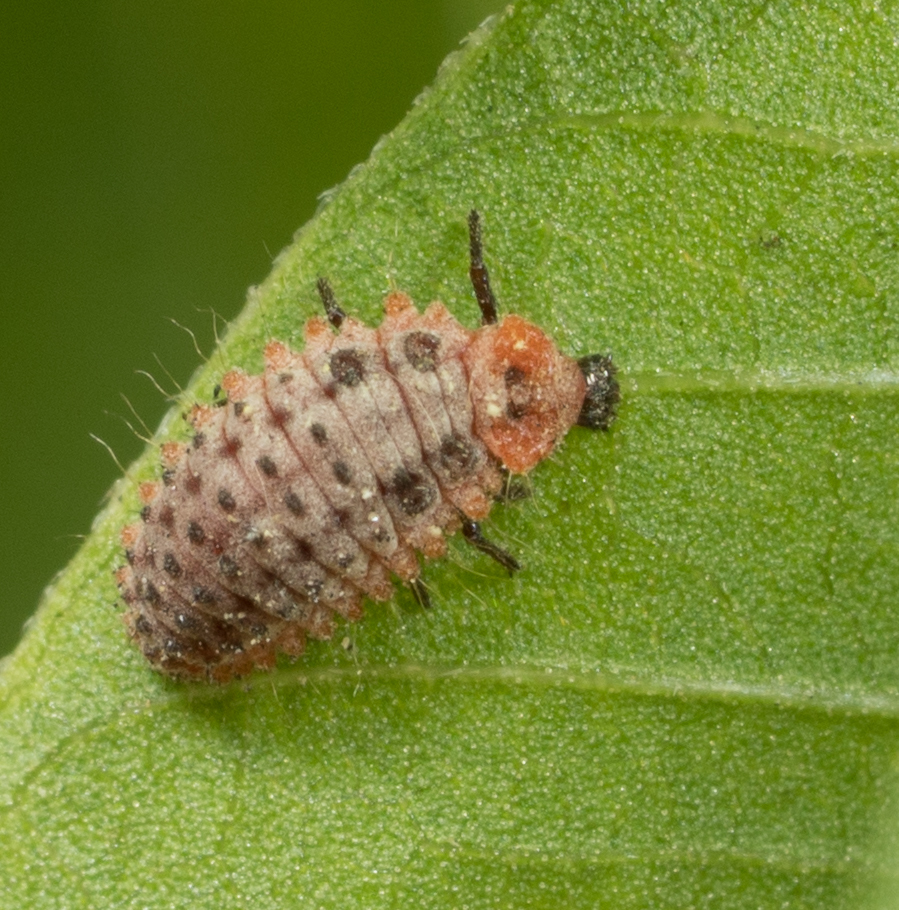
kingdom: Animalia
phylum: Arthropoda
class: Insecta
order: Coleoptera
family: Coccinellidae
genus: Novius
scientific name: Novius cardinalis
